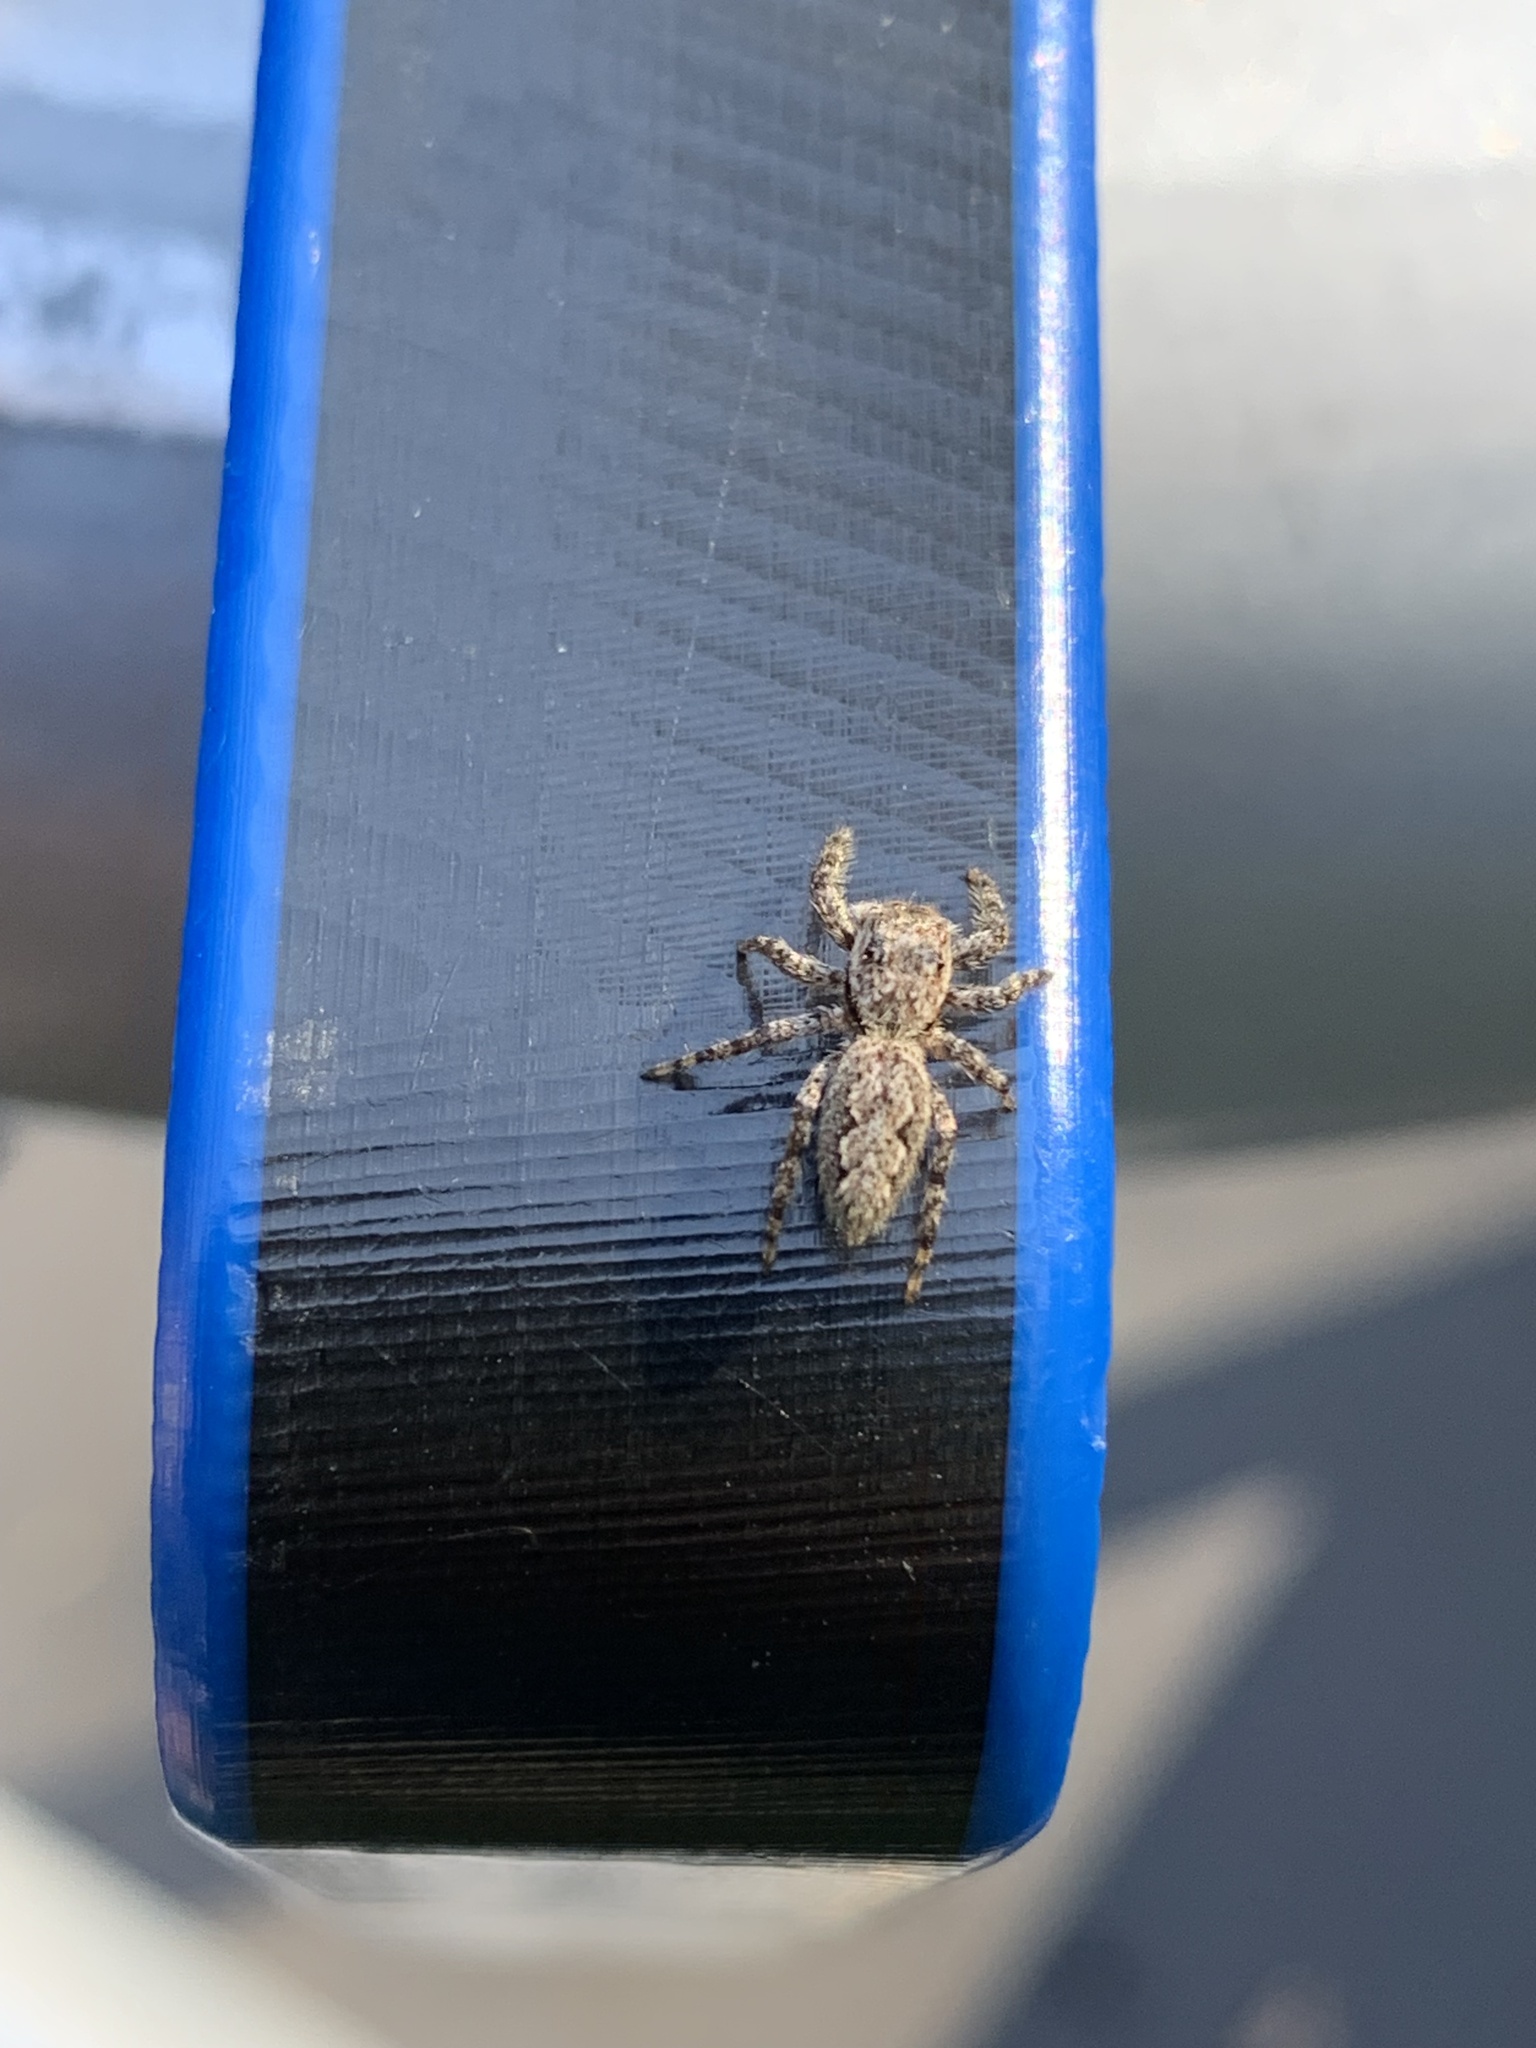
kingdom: Animalia
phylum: Arthropoda
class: Arachnida
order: Araneae
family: Salticidae
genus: Platycryptus
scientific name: Platycryptus undatus
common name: Tan jumping spider
